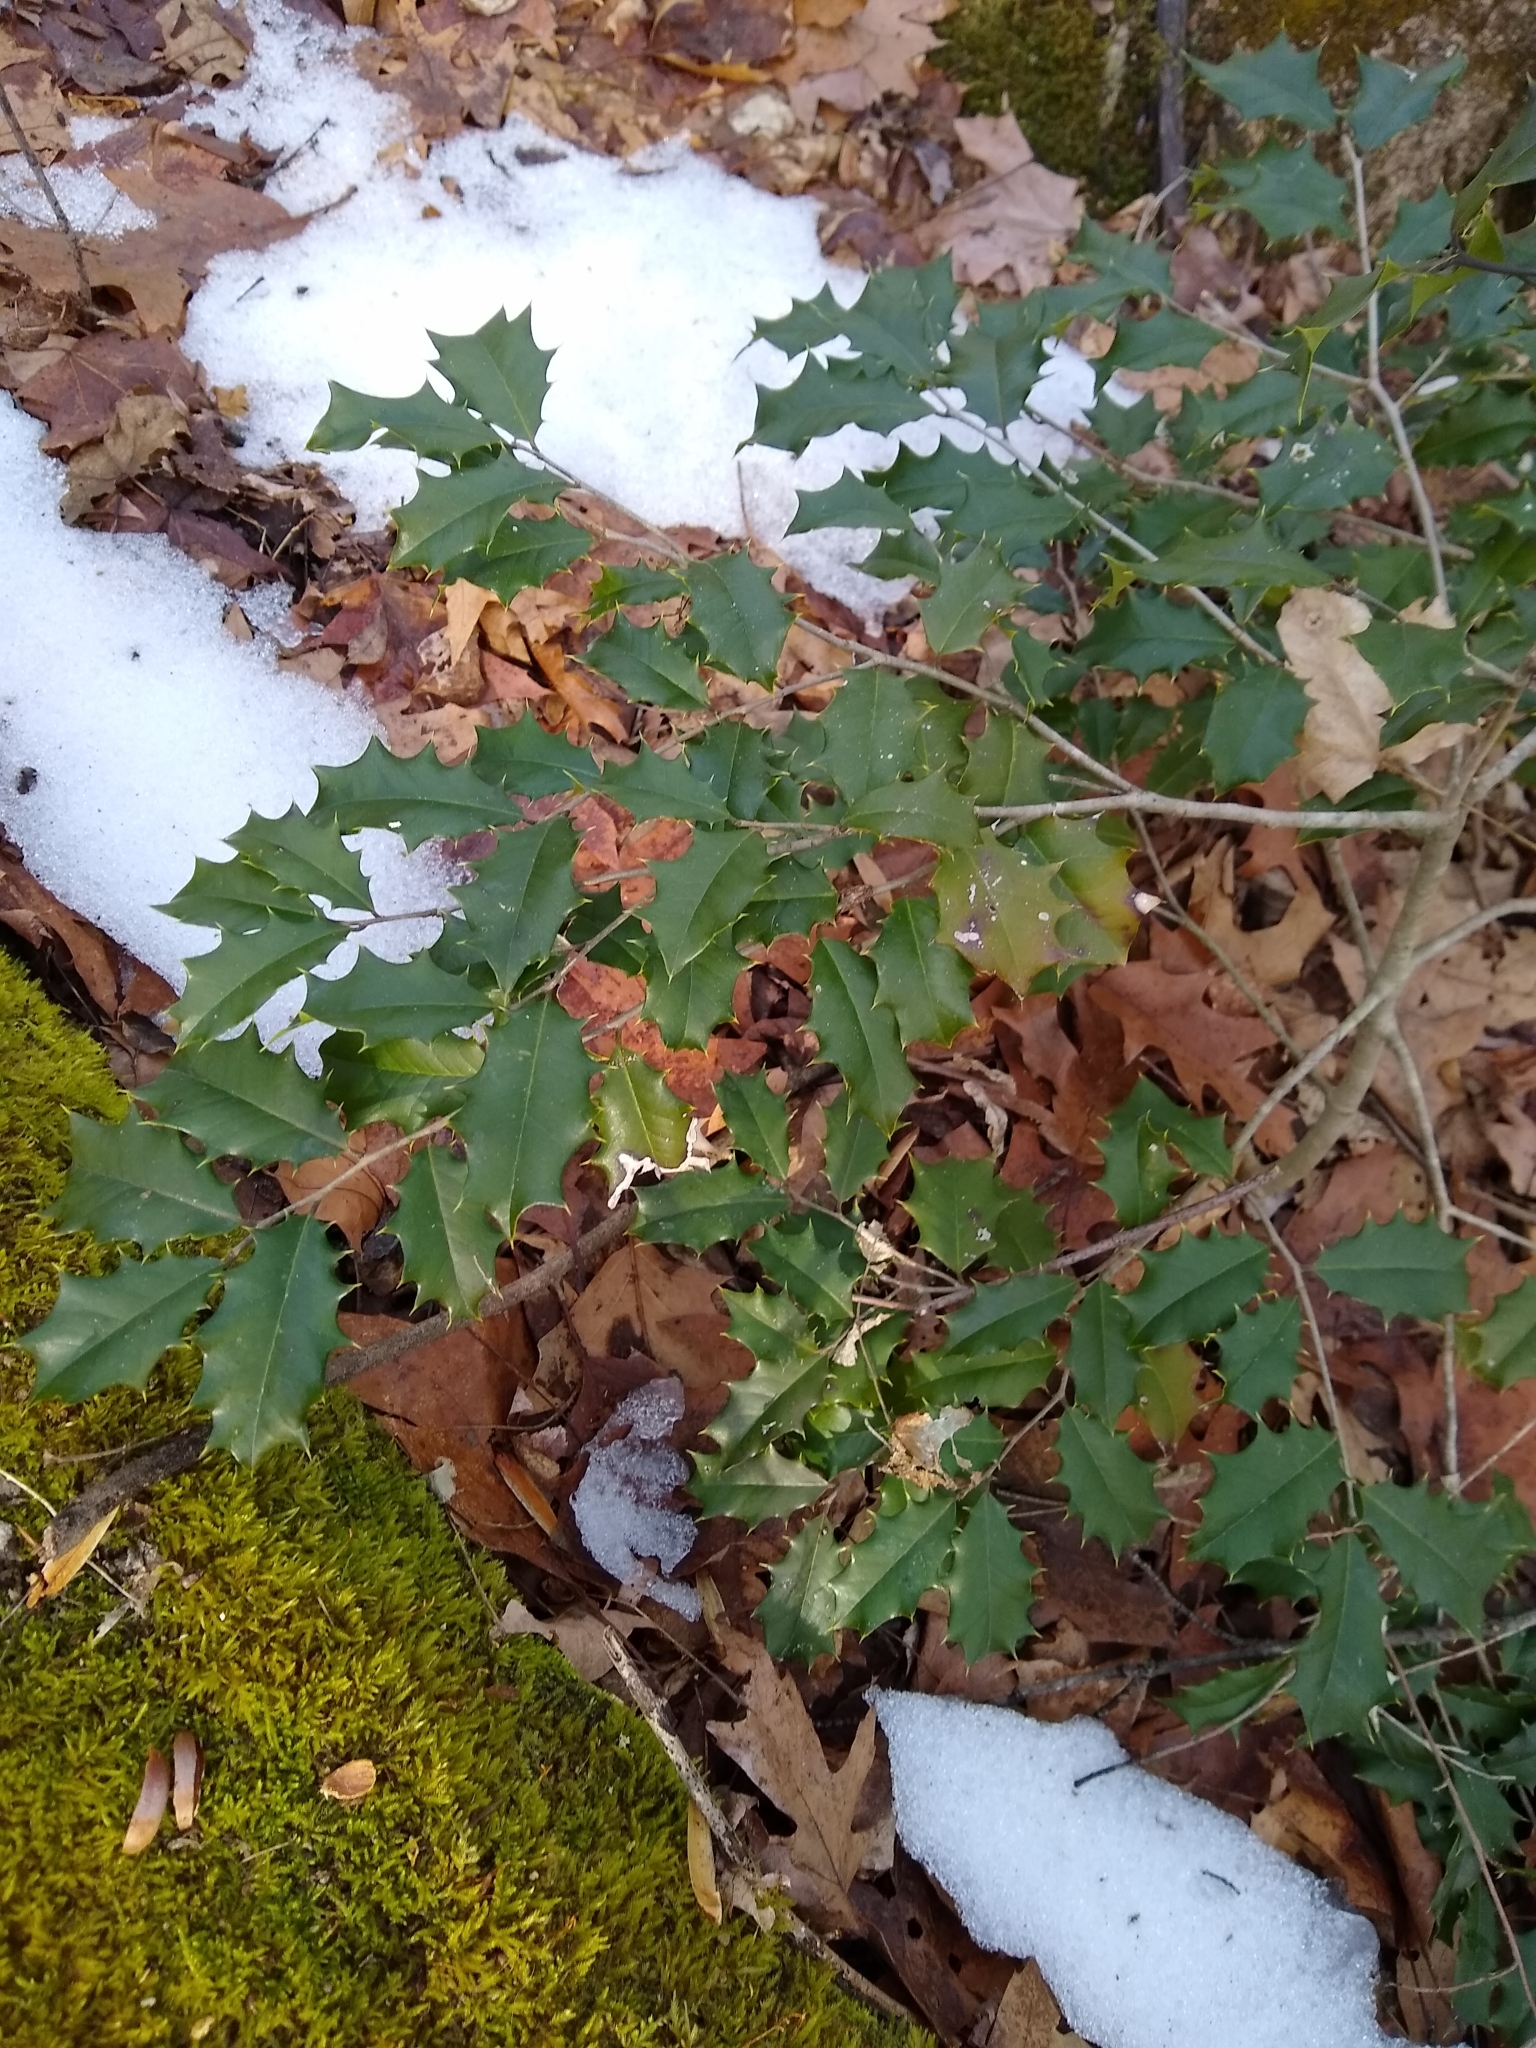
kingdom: Plantae
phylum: Tracheophyta
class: Magnoliopsida
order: Aquifoliales
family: Aquifoliaceae
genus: Ilex
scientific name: Ilex opaca
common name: American holly
